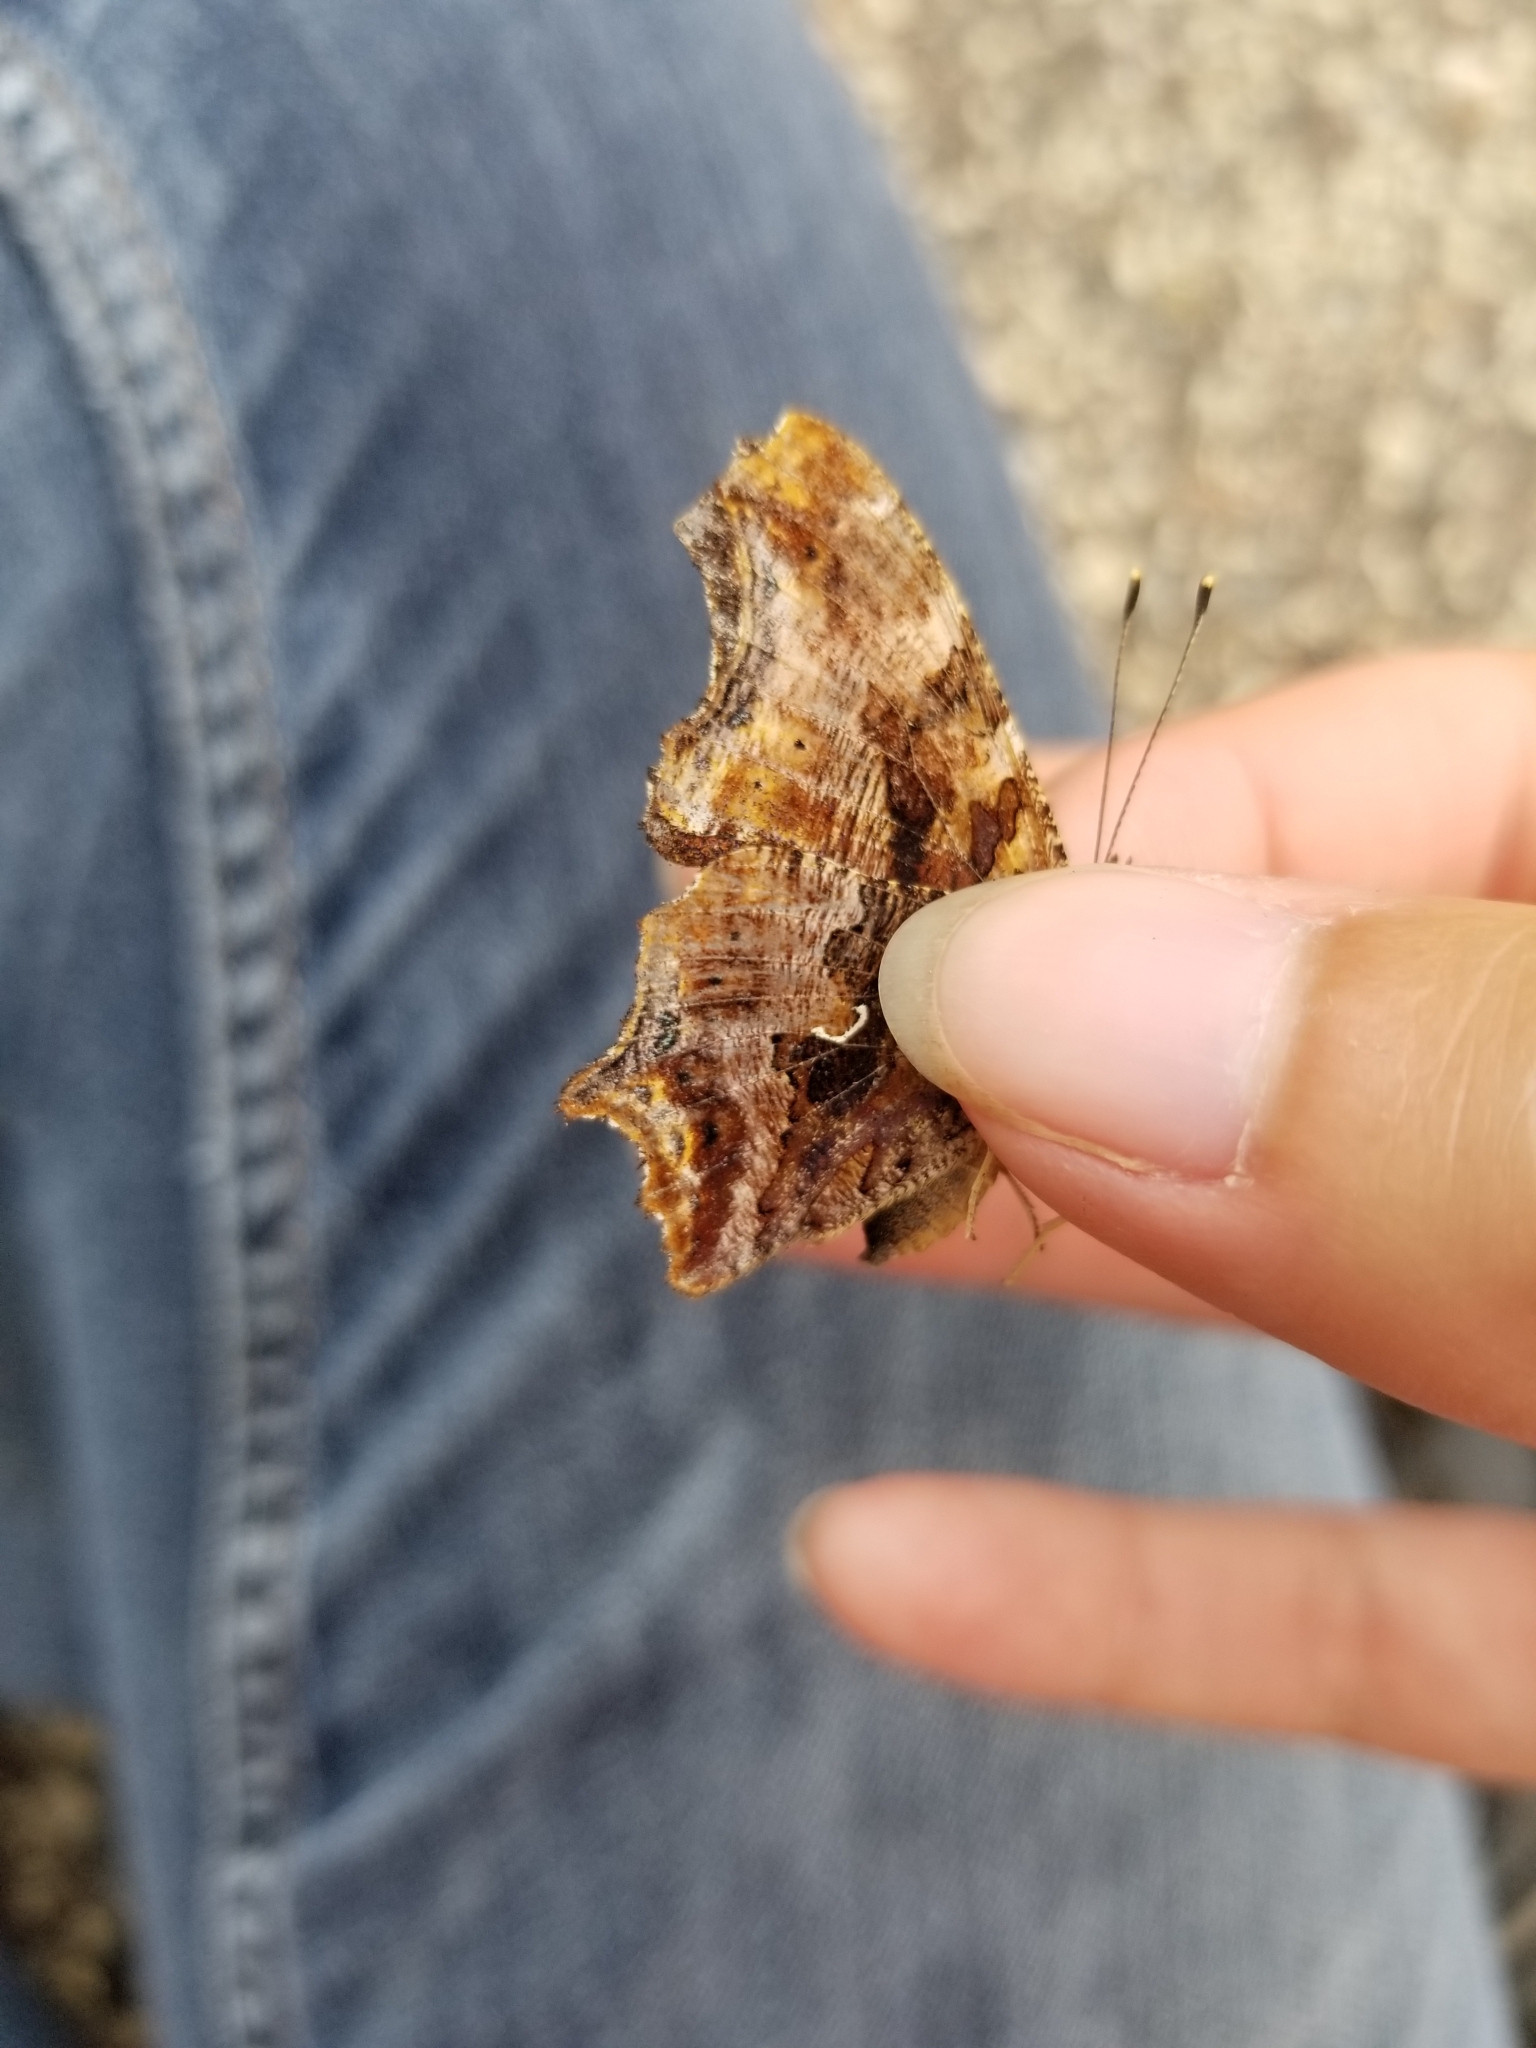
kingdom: Animalia
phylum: Arthropoda
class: Insecta
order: Lepidoptera
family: Nymphalidae
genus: Polygonia
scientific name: Polygonia comma
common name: Eastern comma
